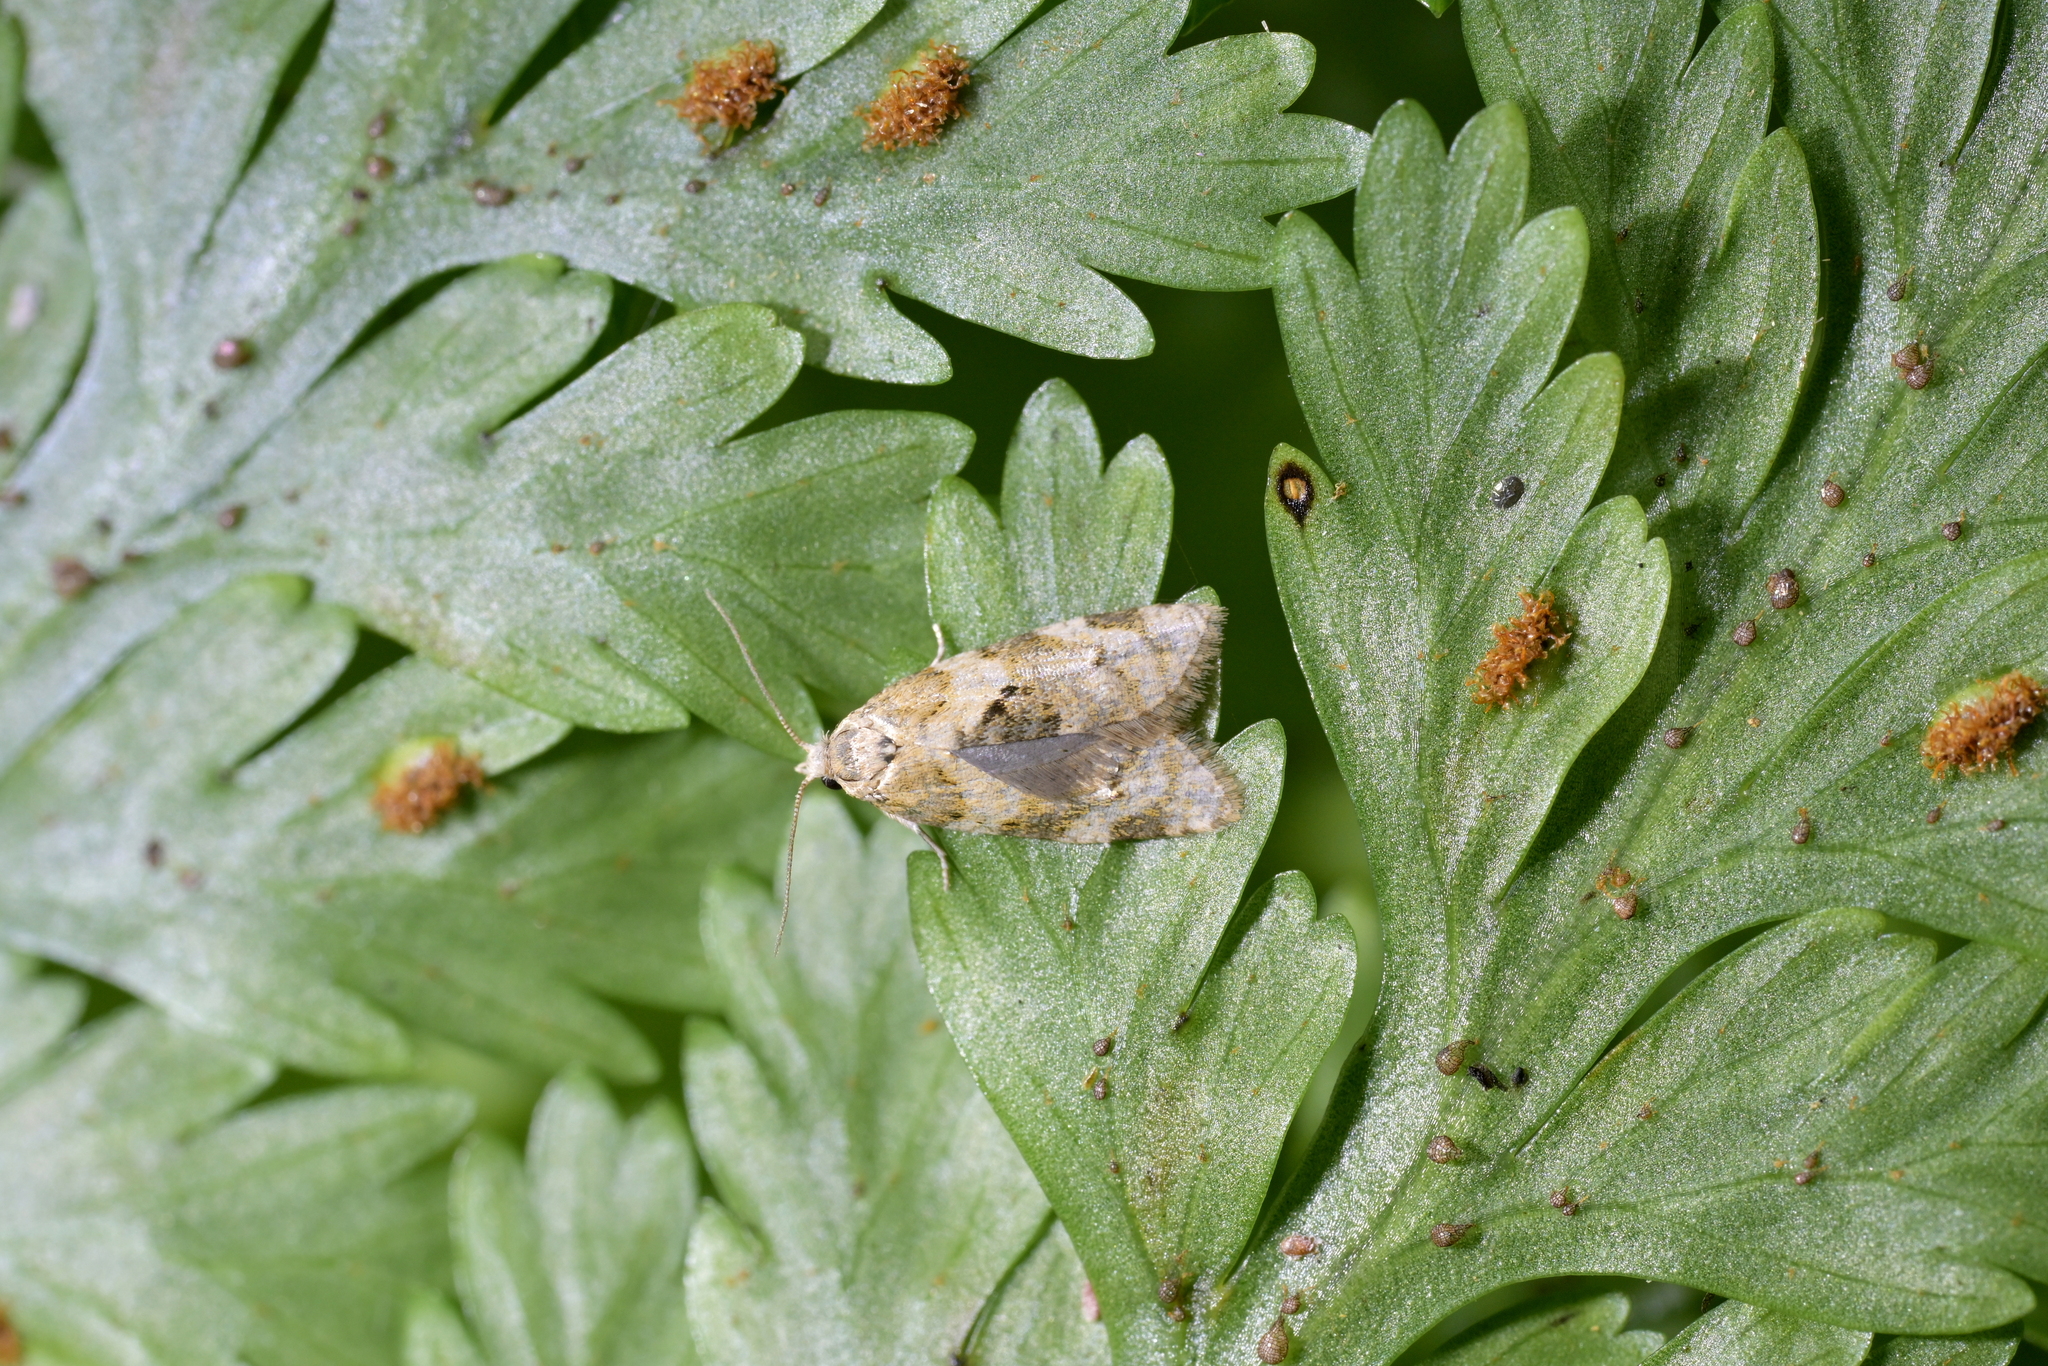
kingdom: Animalia
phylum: Arthropoda
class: Insecta
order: Lepidoptera
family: Tortricidae
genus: Dipterina
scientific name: Dipterina imbriferana
